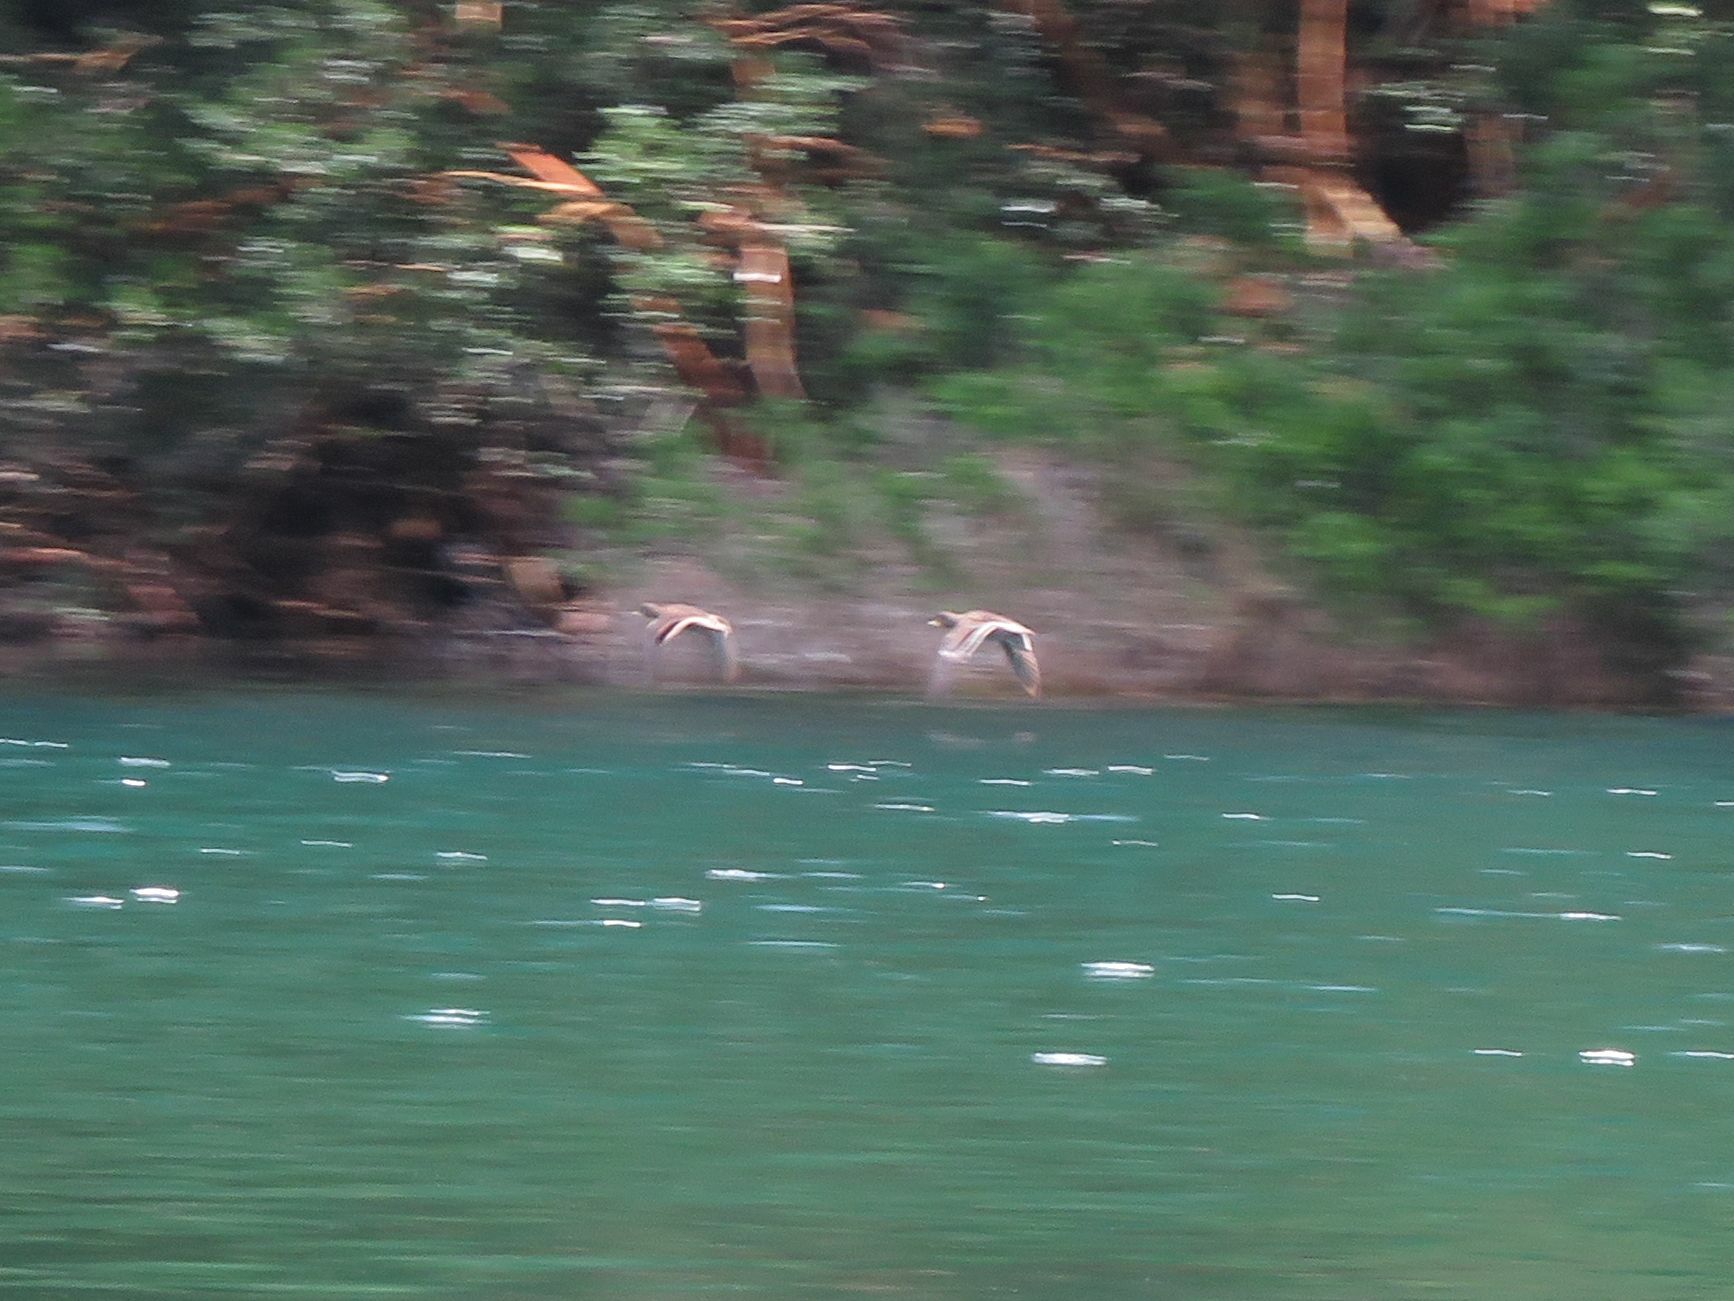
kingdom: Animalia
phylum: Chordata
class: Aves
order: Anseriformes
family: Anatidae
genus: Anas
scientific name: Anas flavirostris
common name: Yellow-billed teal
